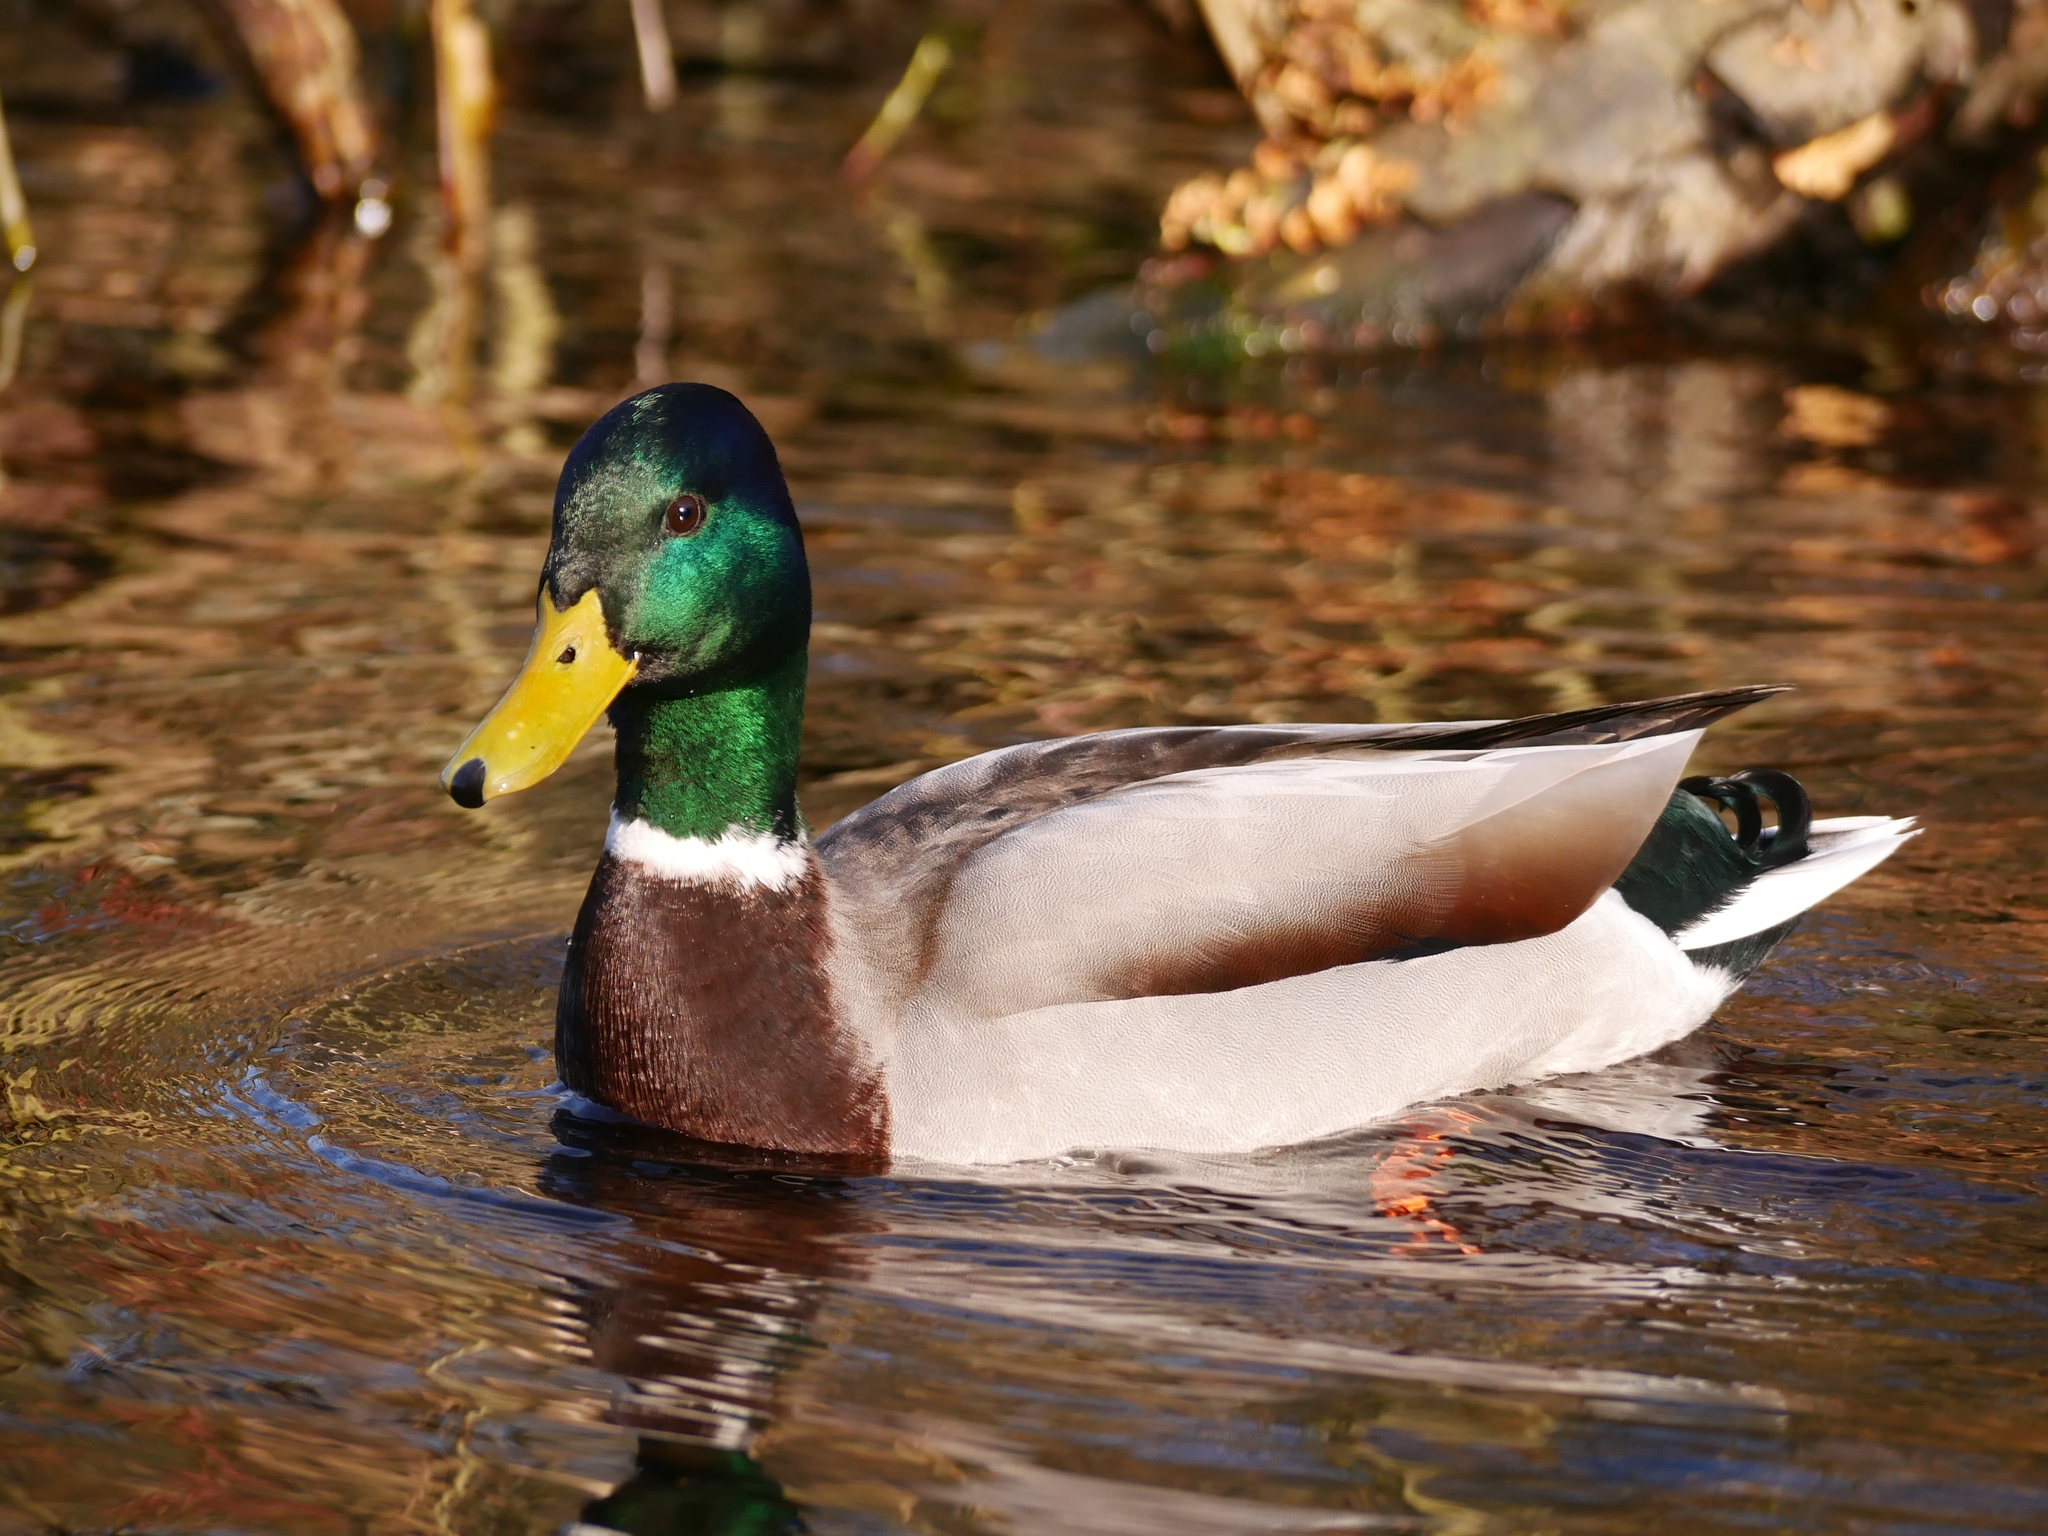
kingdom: Animalia
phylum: Chordata
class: Aves
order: Anseriformes
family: Anatidae
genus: Anas
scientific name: Anas platyrhynchos
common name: Mallard
